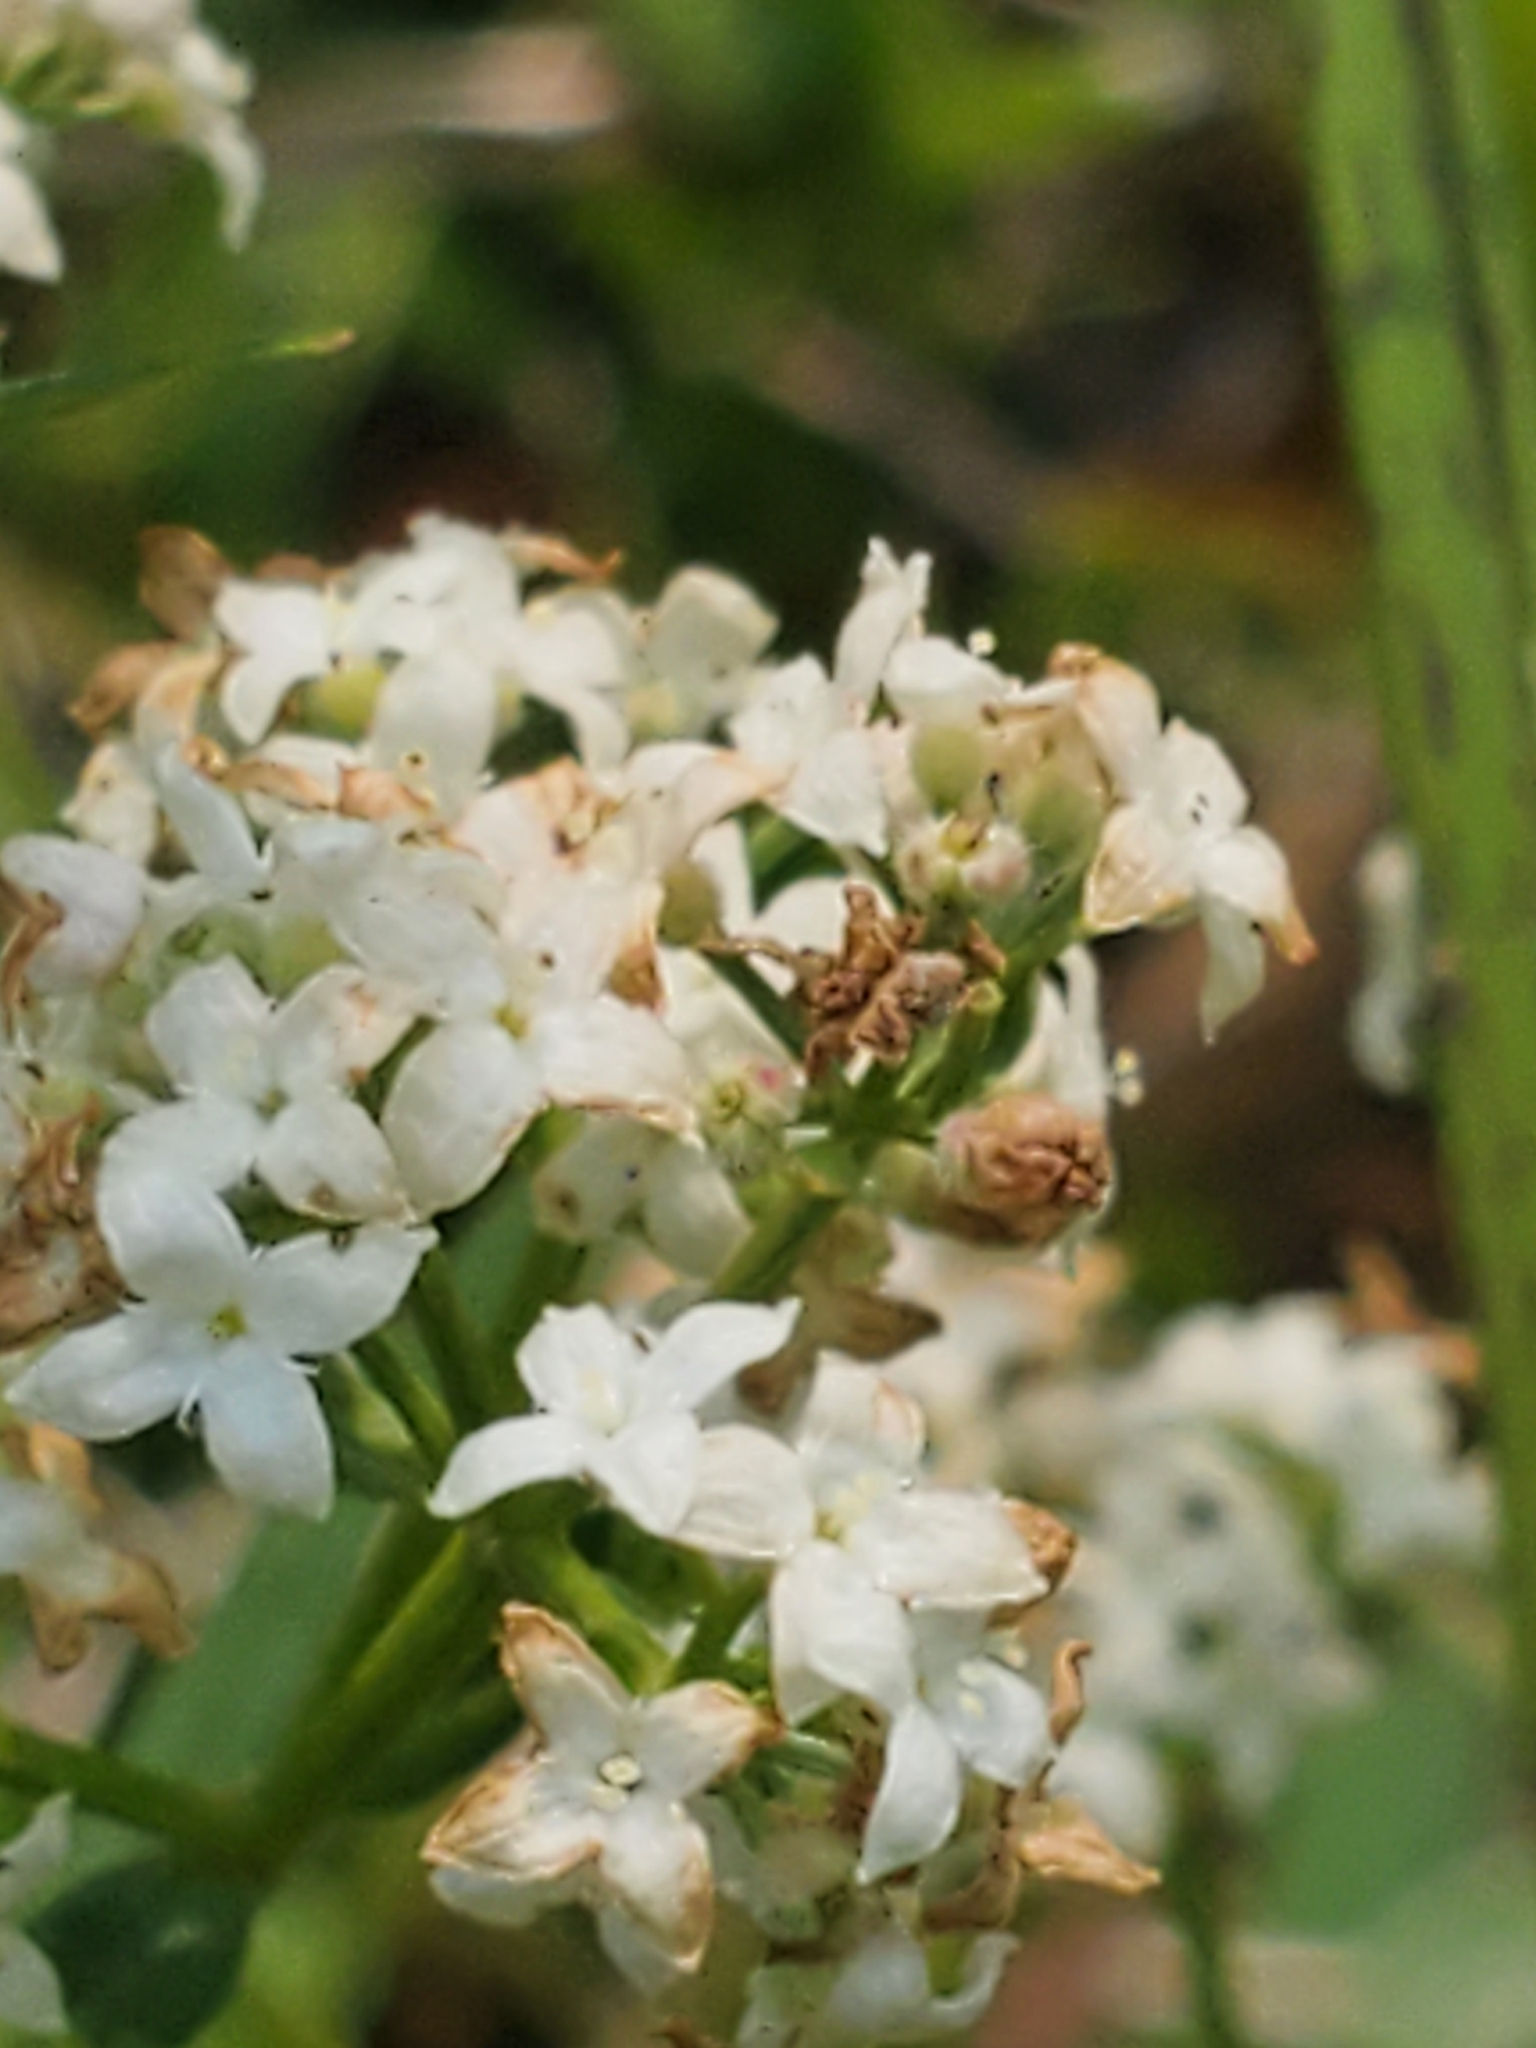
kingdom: Plantae
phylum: Tracheophyta
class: Magnoliopsida
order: Gentianales
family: Rubiaceae
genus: Galium
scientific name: Galium boreale
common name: Northern bedstraw
